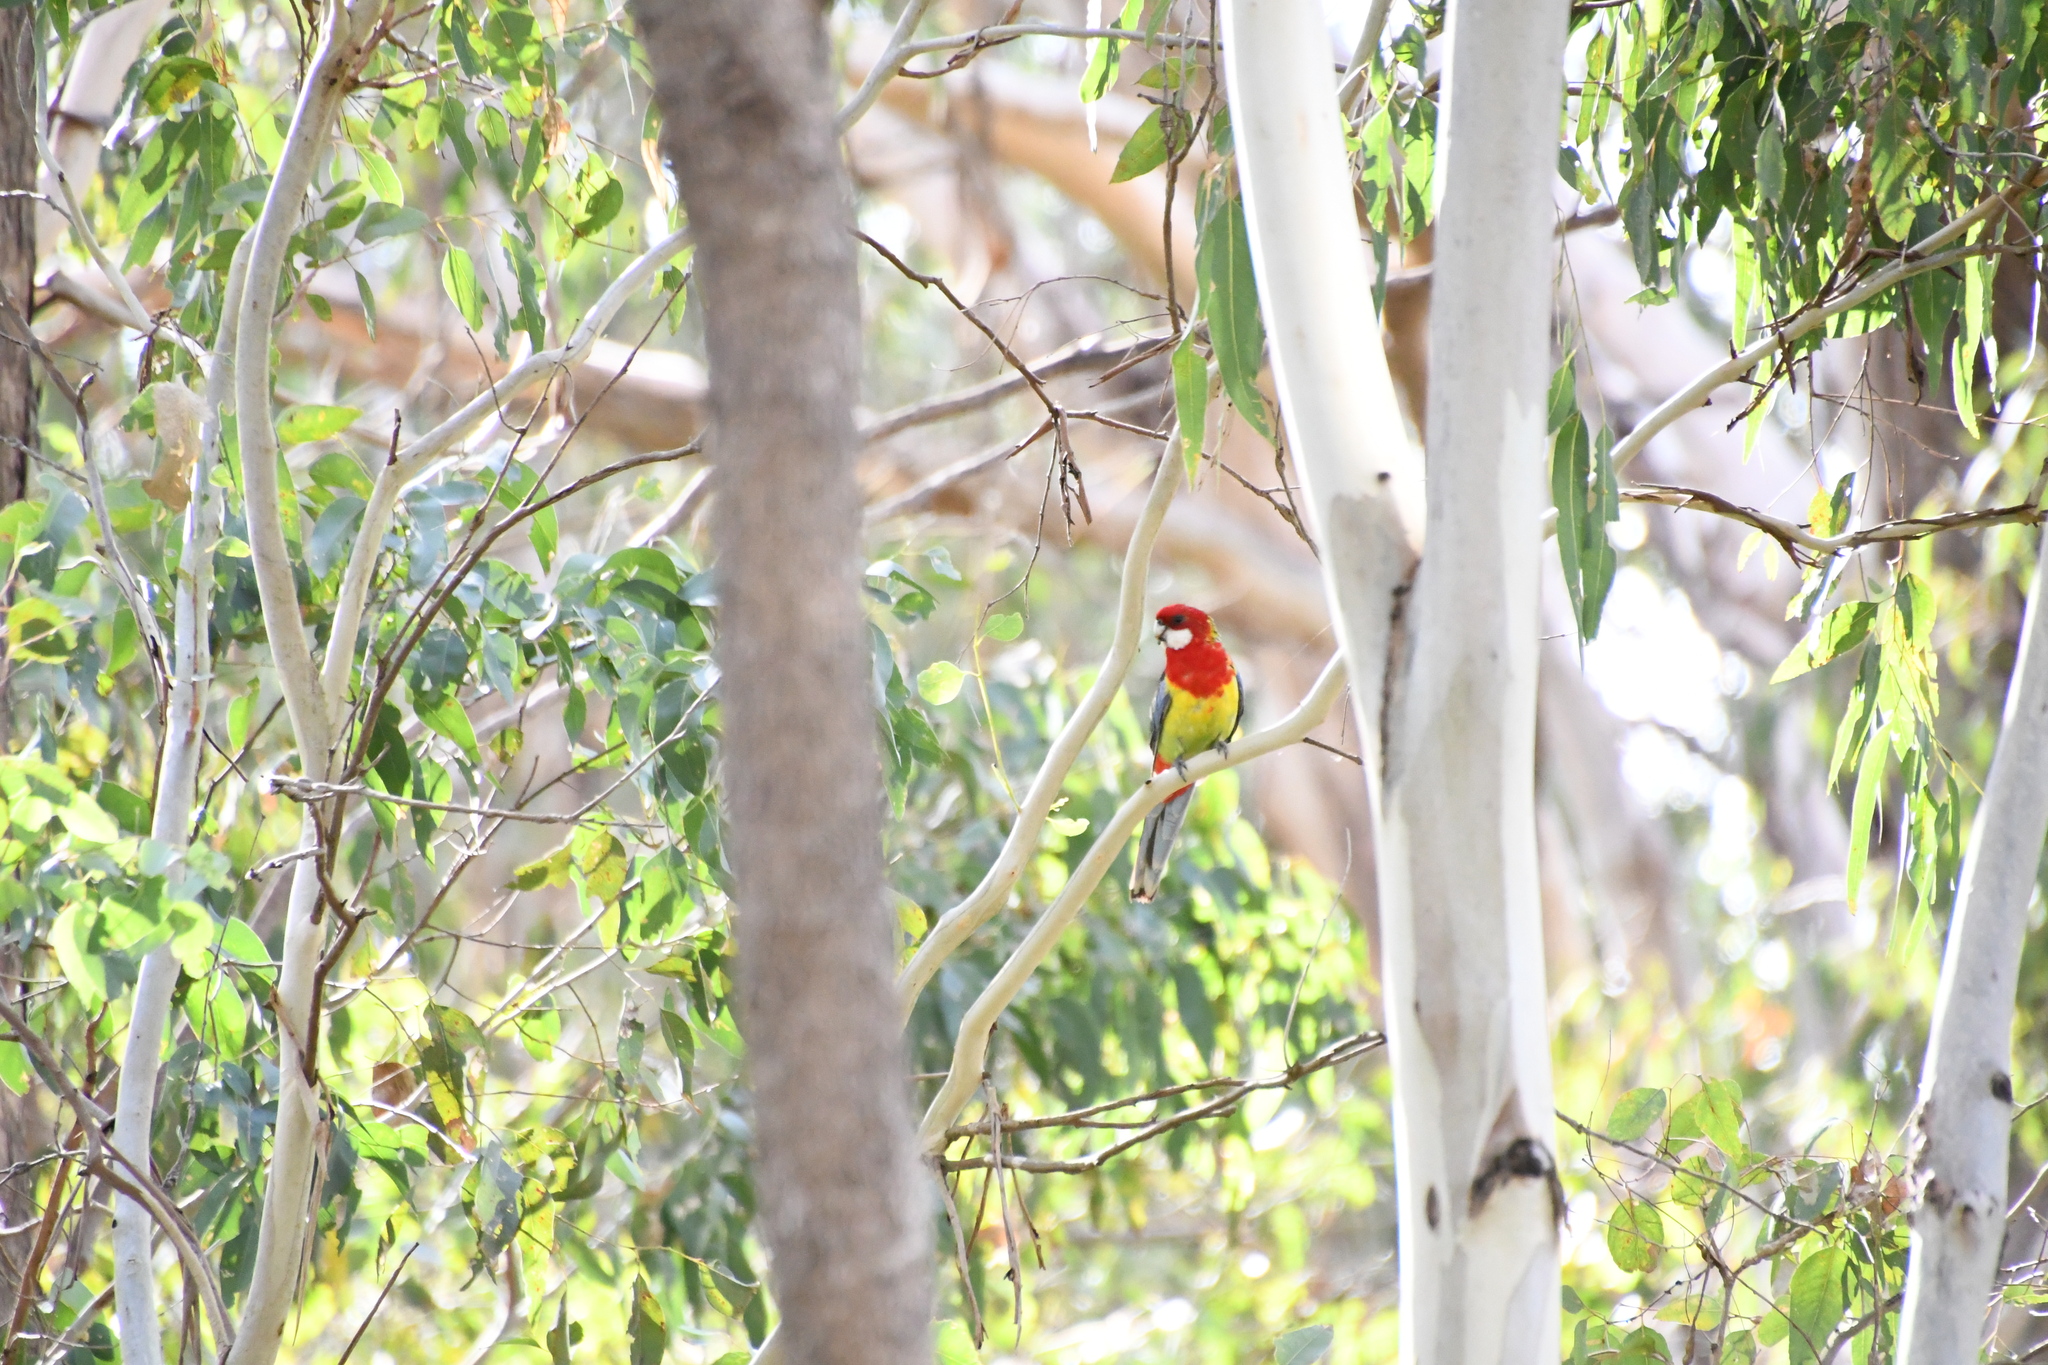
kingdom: Animalia
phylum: Chordata
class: Aves
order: Psittaciformes
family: Psittacidae
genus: Platycercus
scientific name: Platycercus eximius
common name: Eastern rosella
